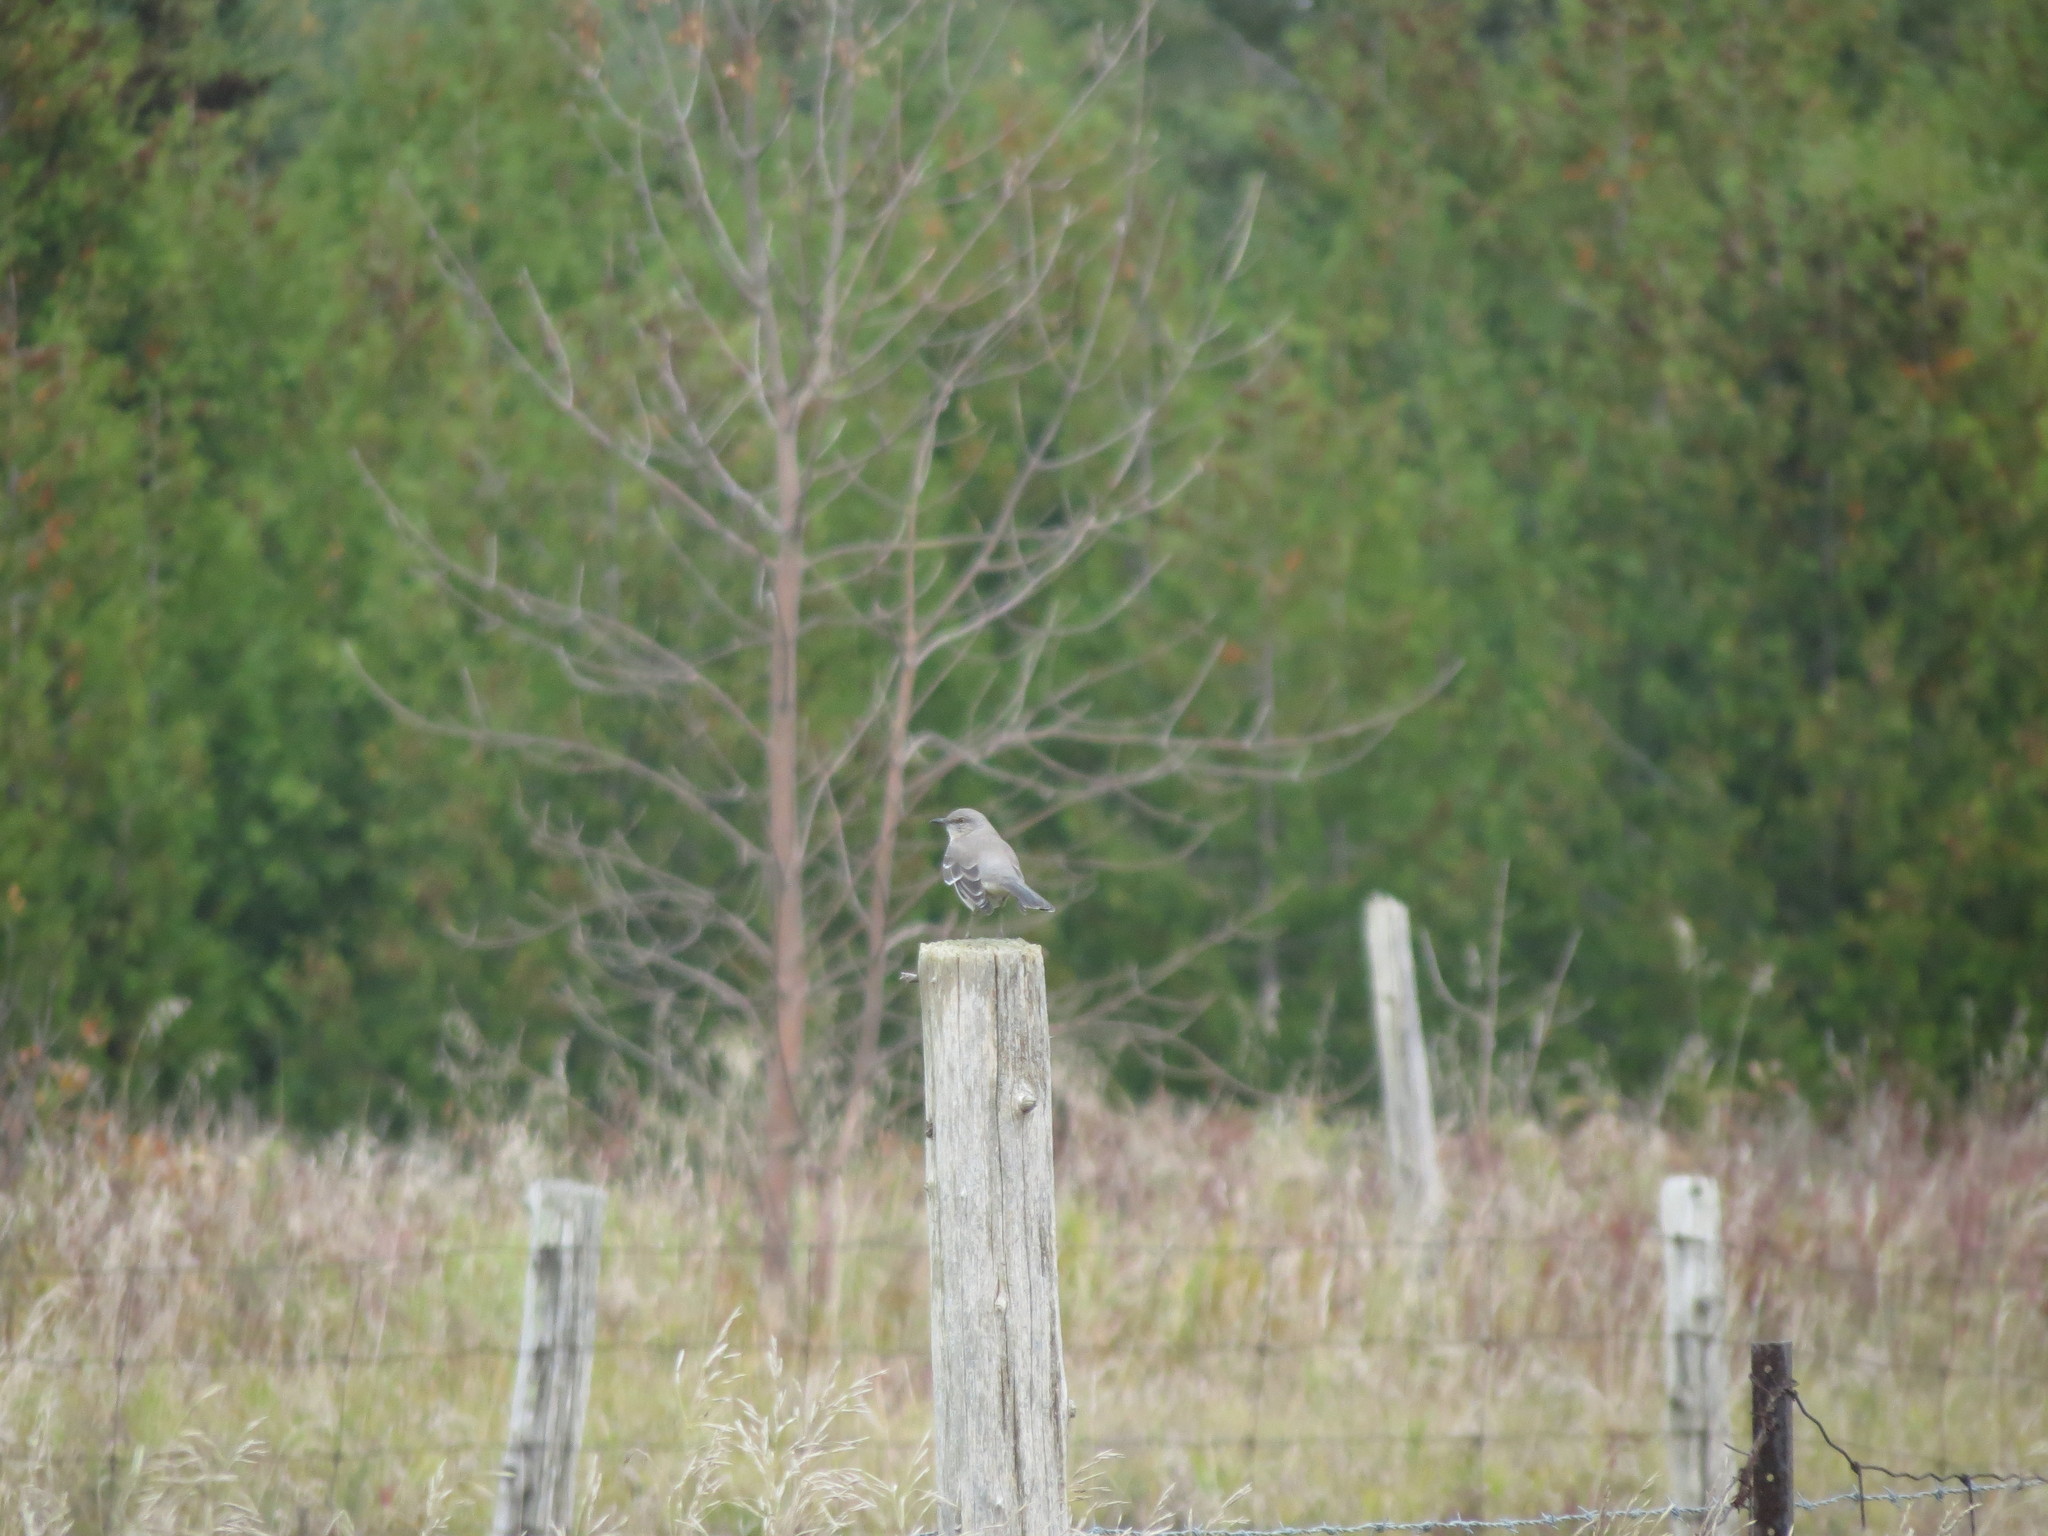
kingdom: Animalia
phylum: Chordata
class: Aves
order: Passeriformes
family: Mimidae
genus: Mimus
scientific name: Mimus polyglottos
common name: Northern mockingbird
